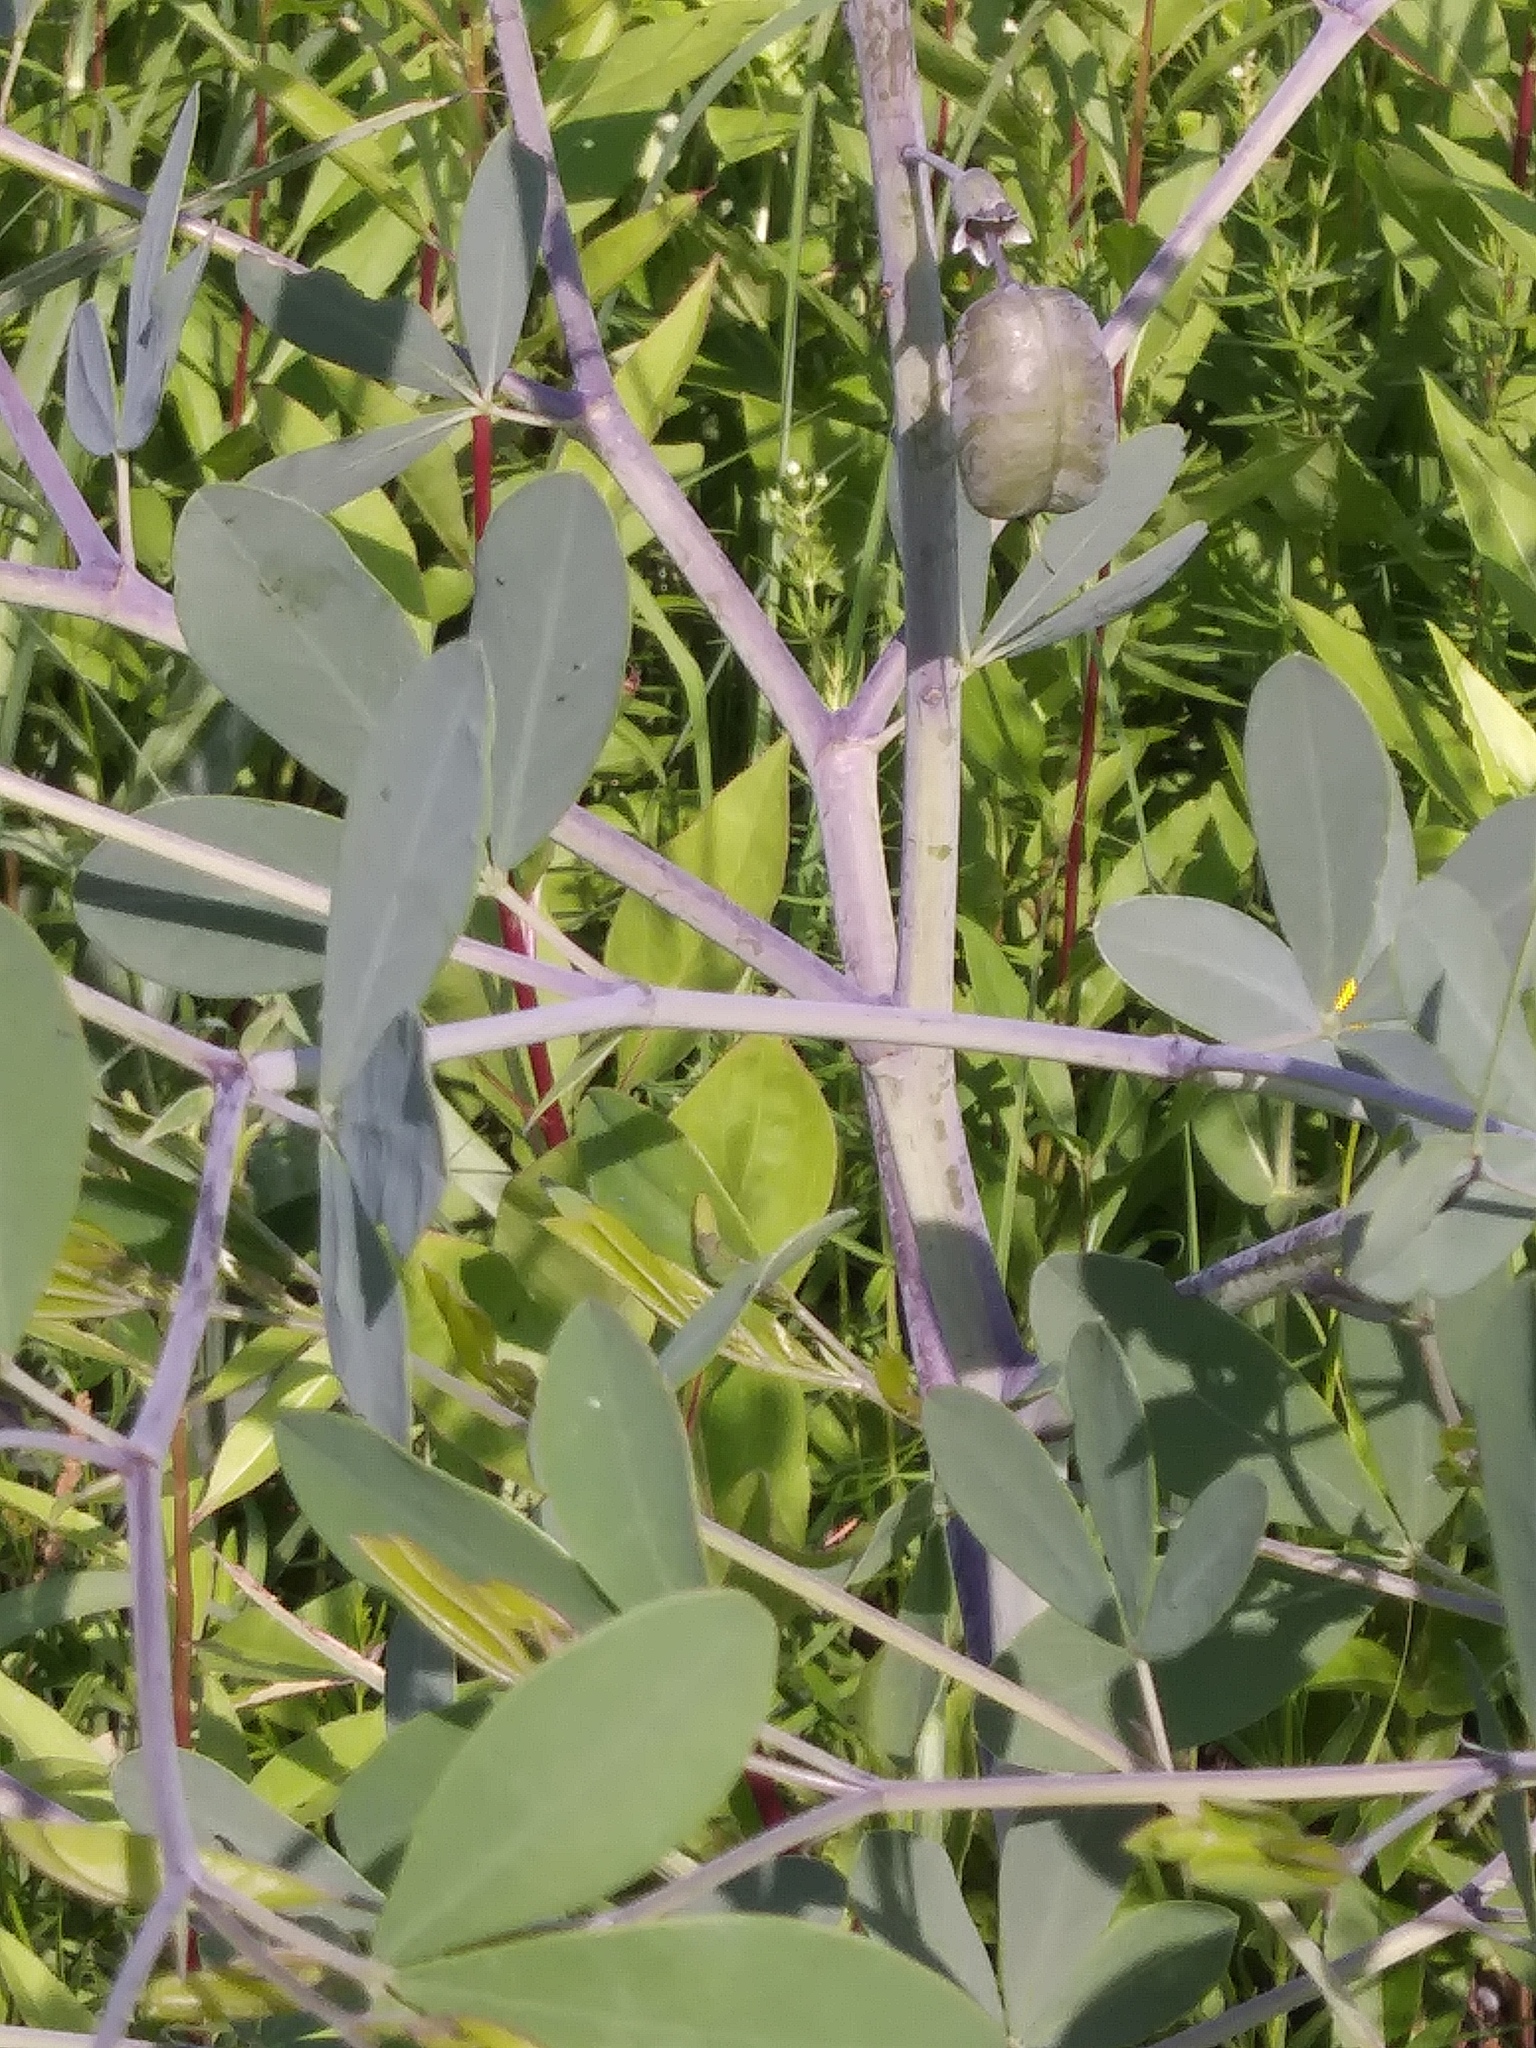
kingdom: Plantae
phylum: Tracheophyta
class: Magnoliopsida
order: Fabales
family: Fabaceae
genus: Baptisia
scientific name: Baptisia alba
